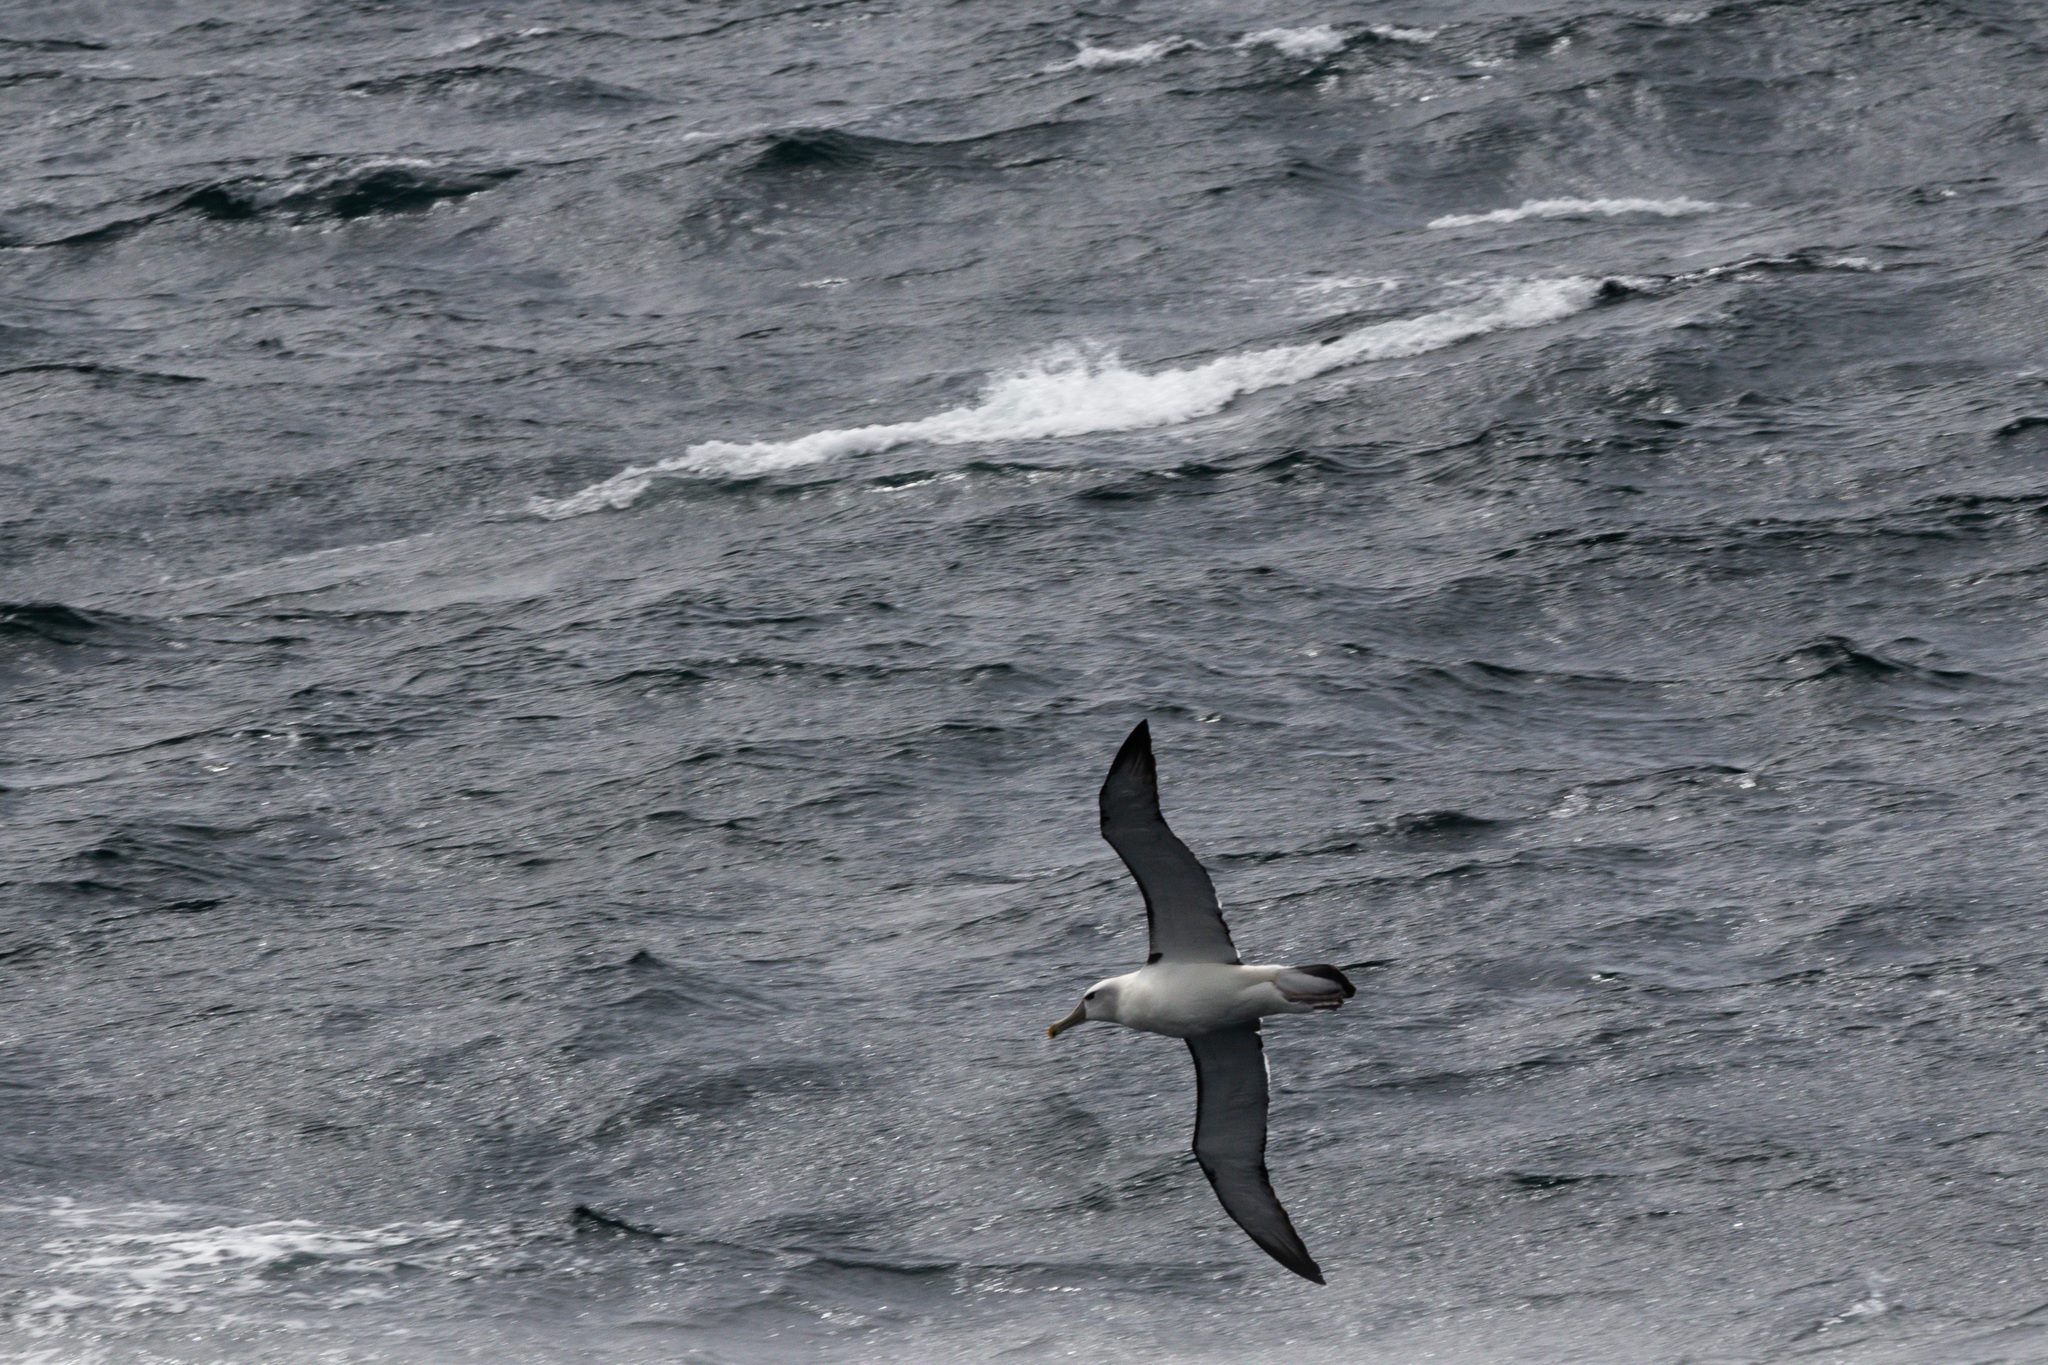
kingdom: Animalia
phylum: Chordata
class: Aves
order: Procellariiformes
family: Diomedeidae
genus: Thalassarche
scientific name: Thalassarche cauta
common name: Shy albatross
